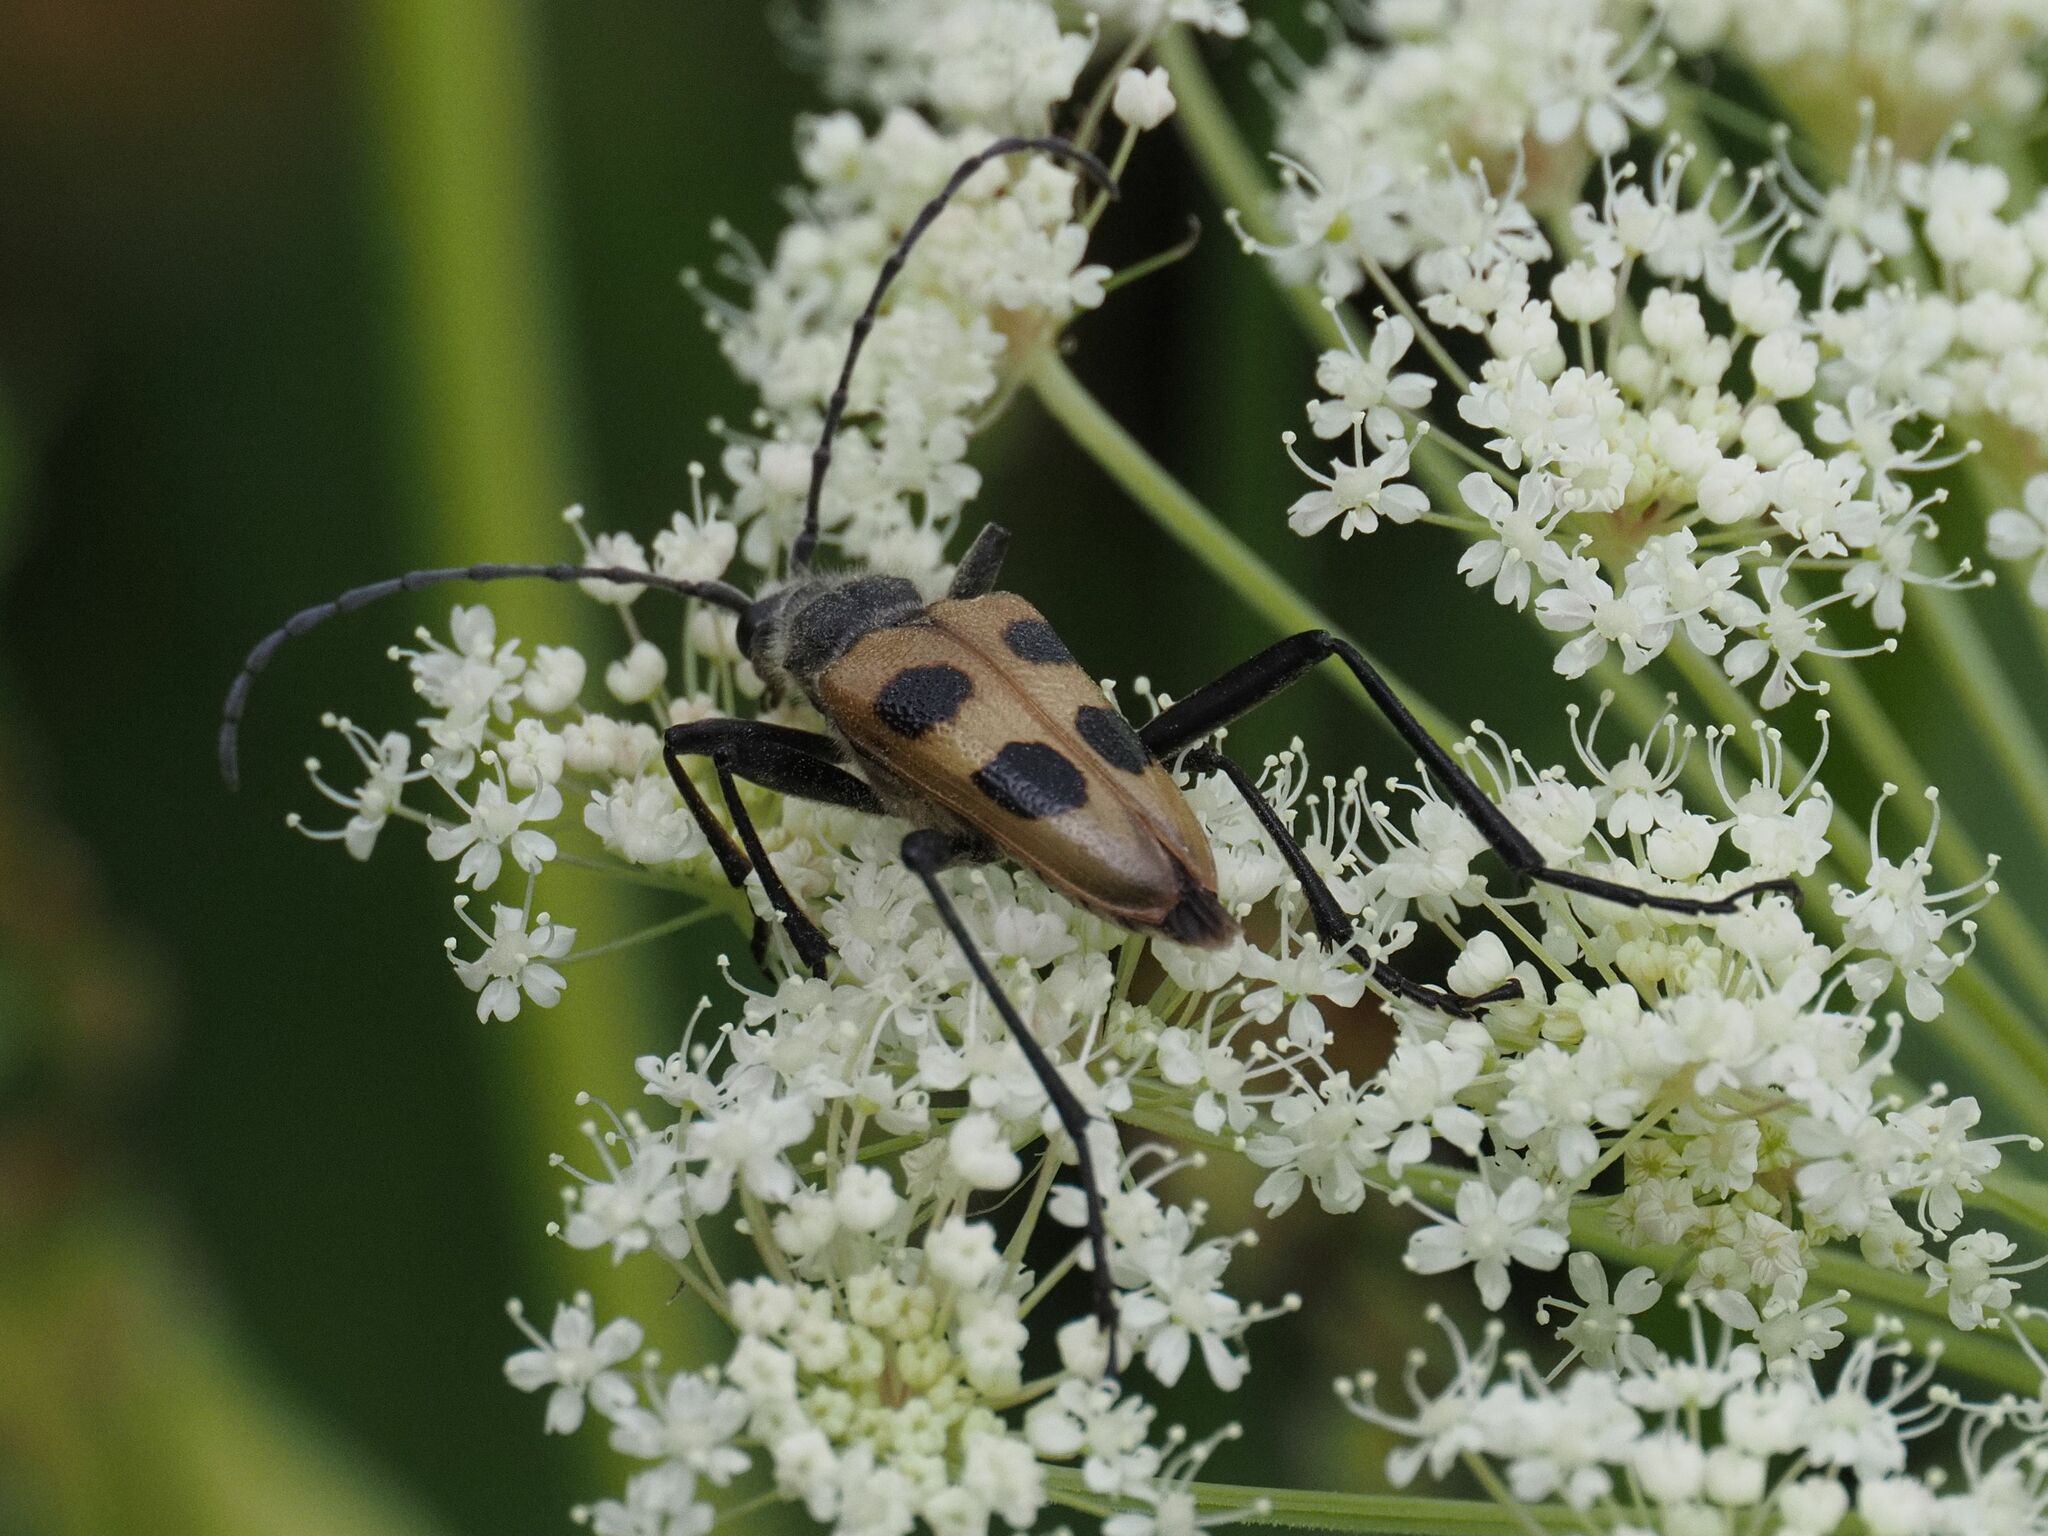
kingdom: Animalia
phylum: Arthropoda
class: Insecta
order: Coleoptera
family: Cerambycidae
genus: Pachyta
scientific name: Pachyta quadrimaculata
